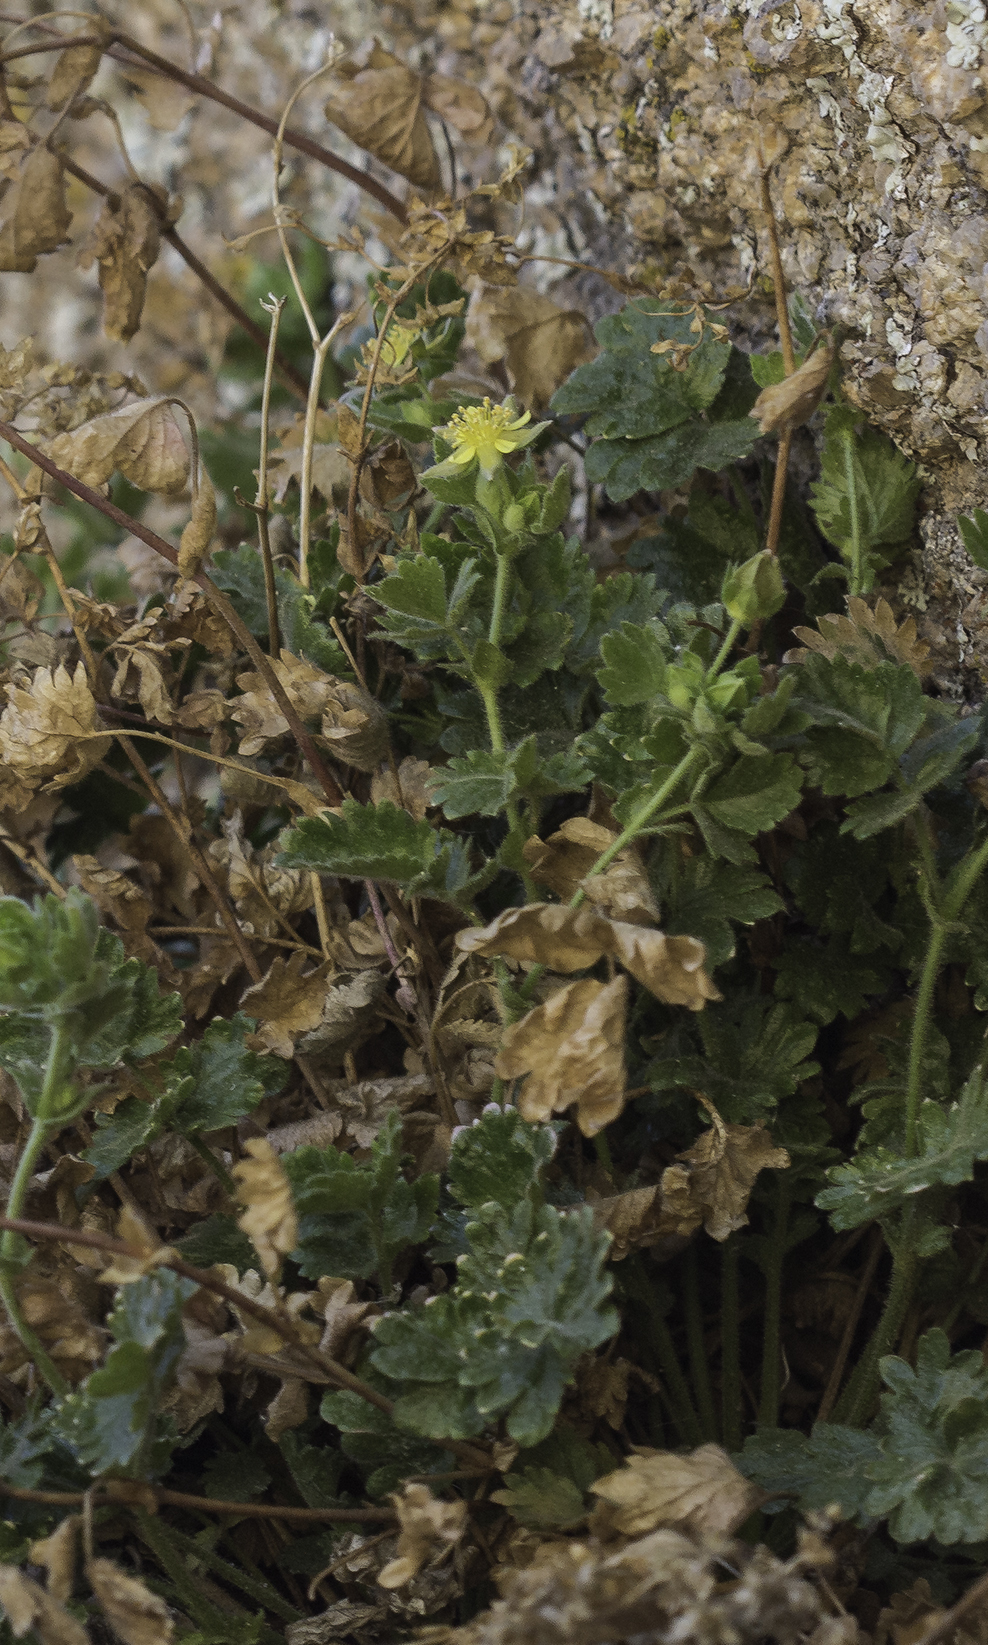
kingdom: Plantae
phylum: Tracheophyta
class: Magnoliopsida
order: Rosales
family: Rosaceae
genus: Potentilla
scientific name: Potentilla saxosa
